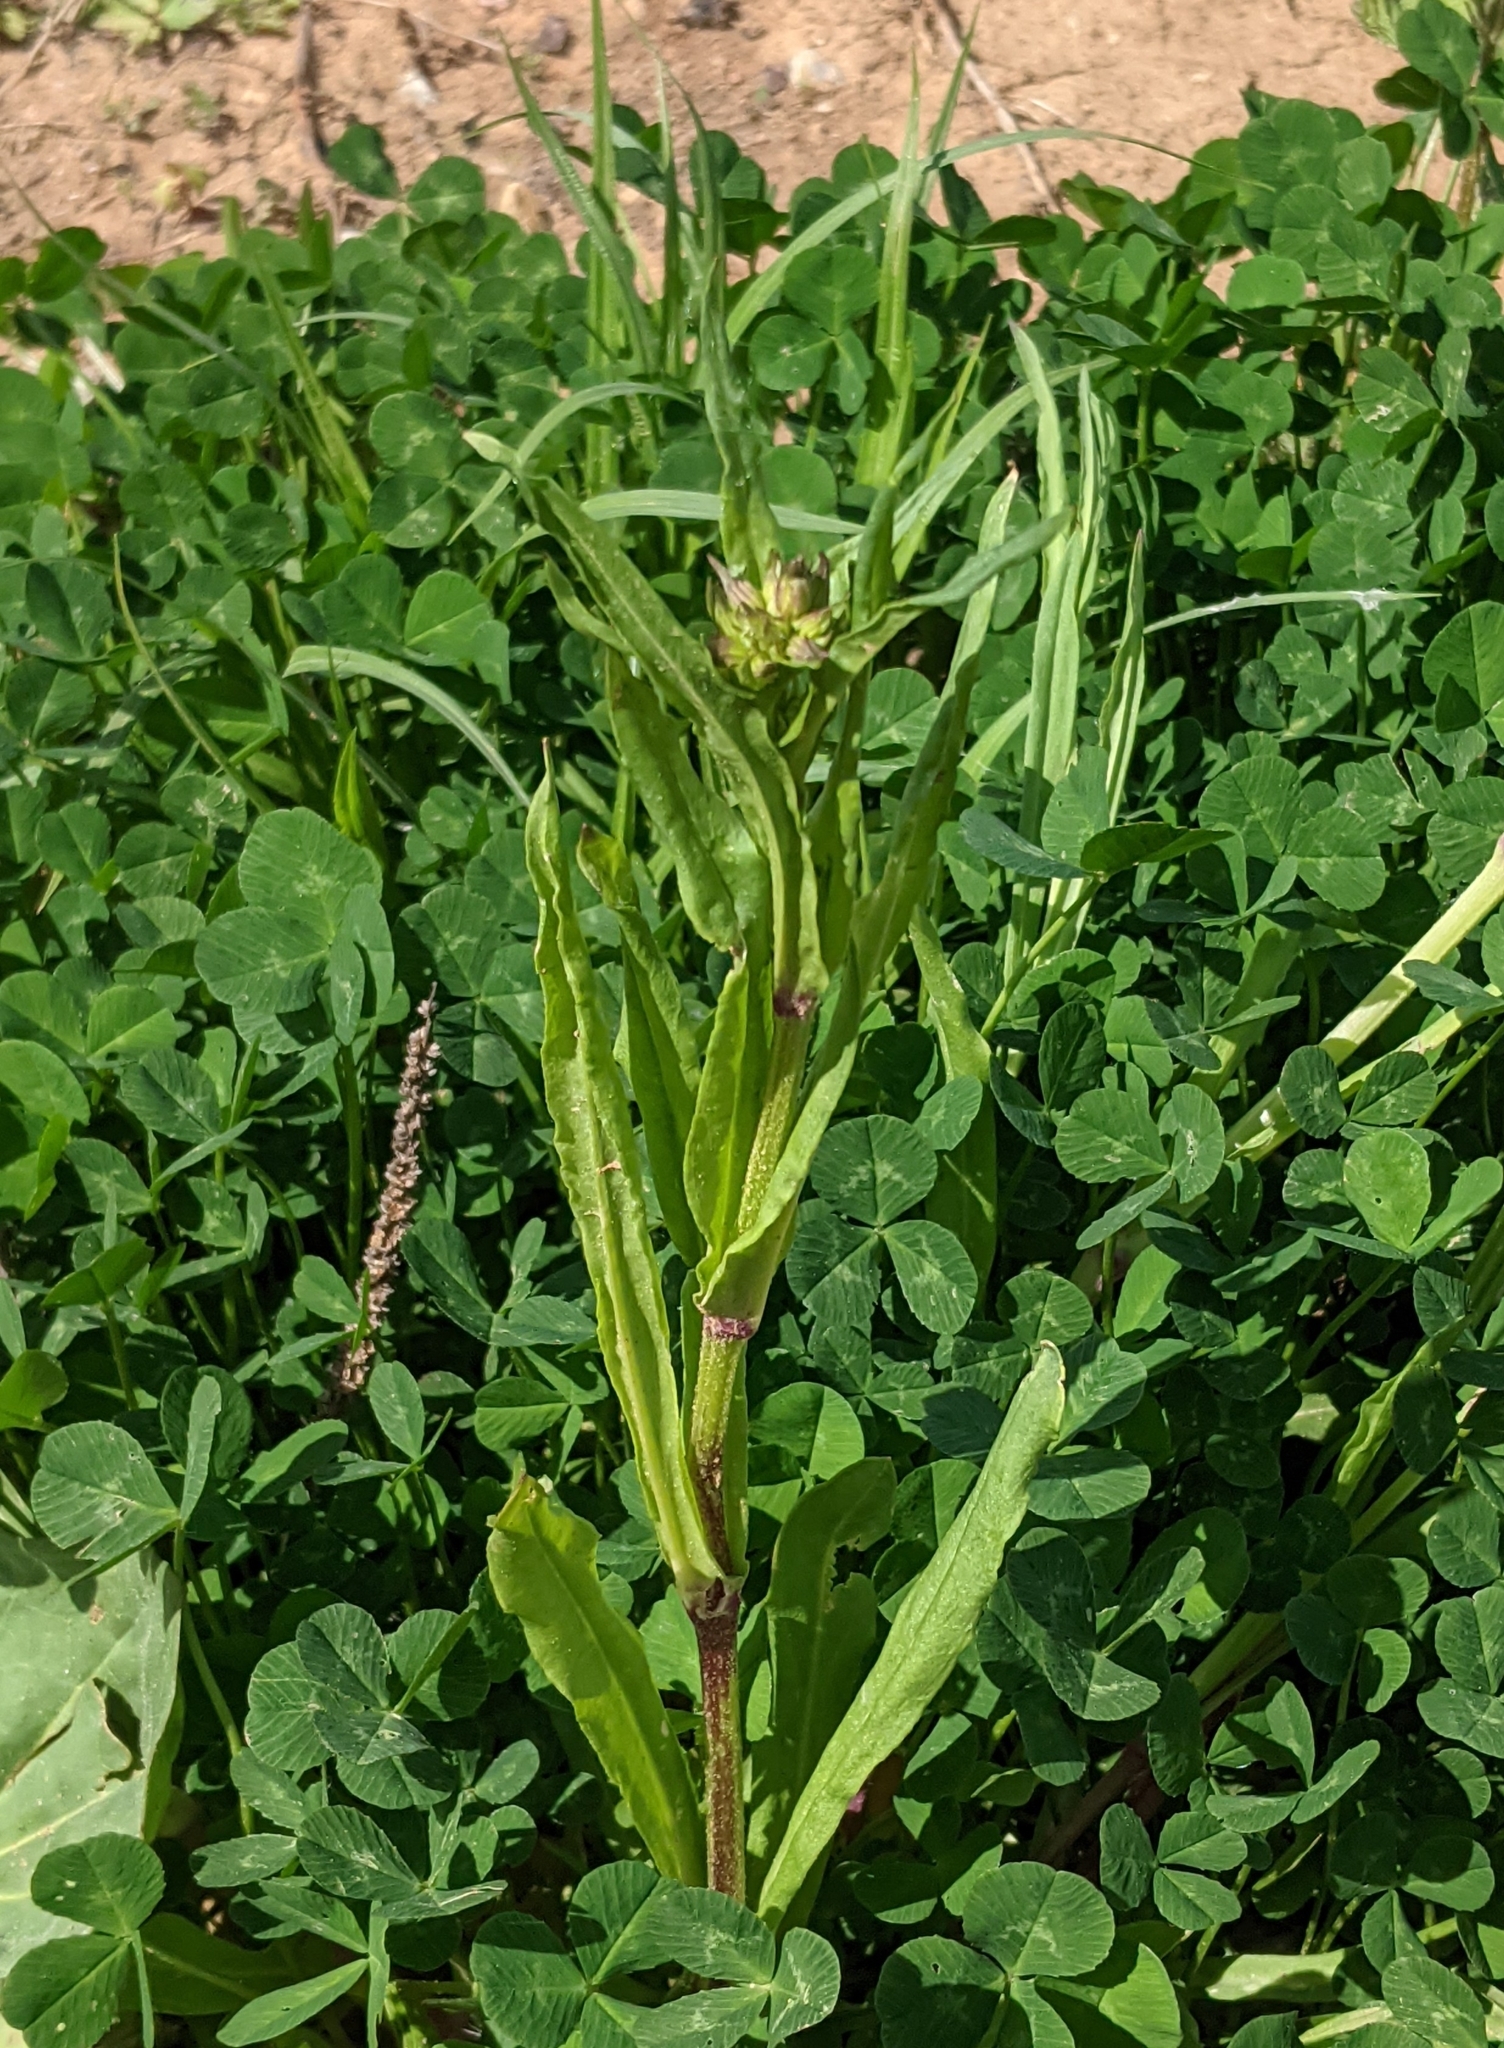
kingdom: Plantae
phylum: Tracheophyta
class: Magnoliopsida
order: Caryophyllales
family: Caryophyllaceae
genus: Silene
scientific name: Silene flos-cuculi
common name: Ragged-robin
